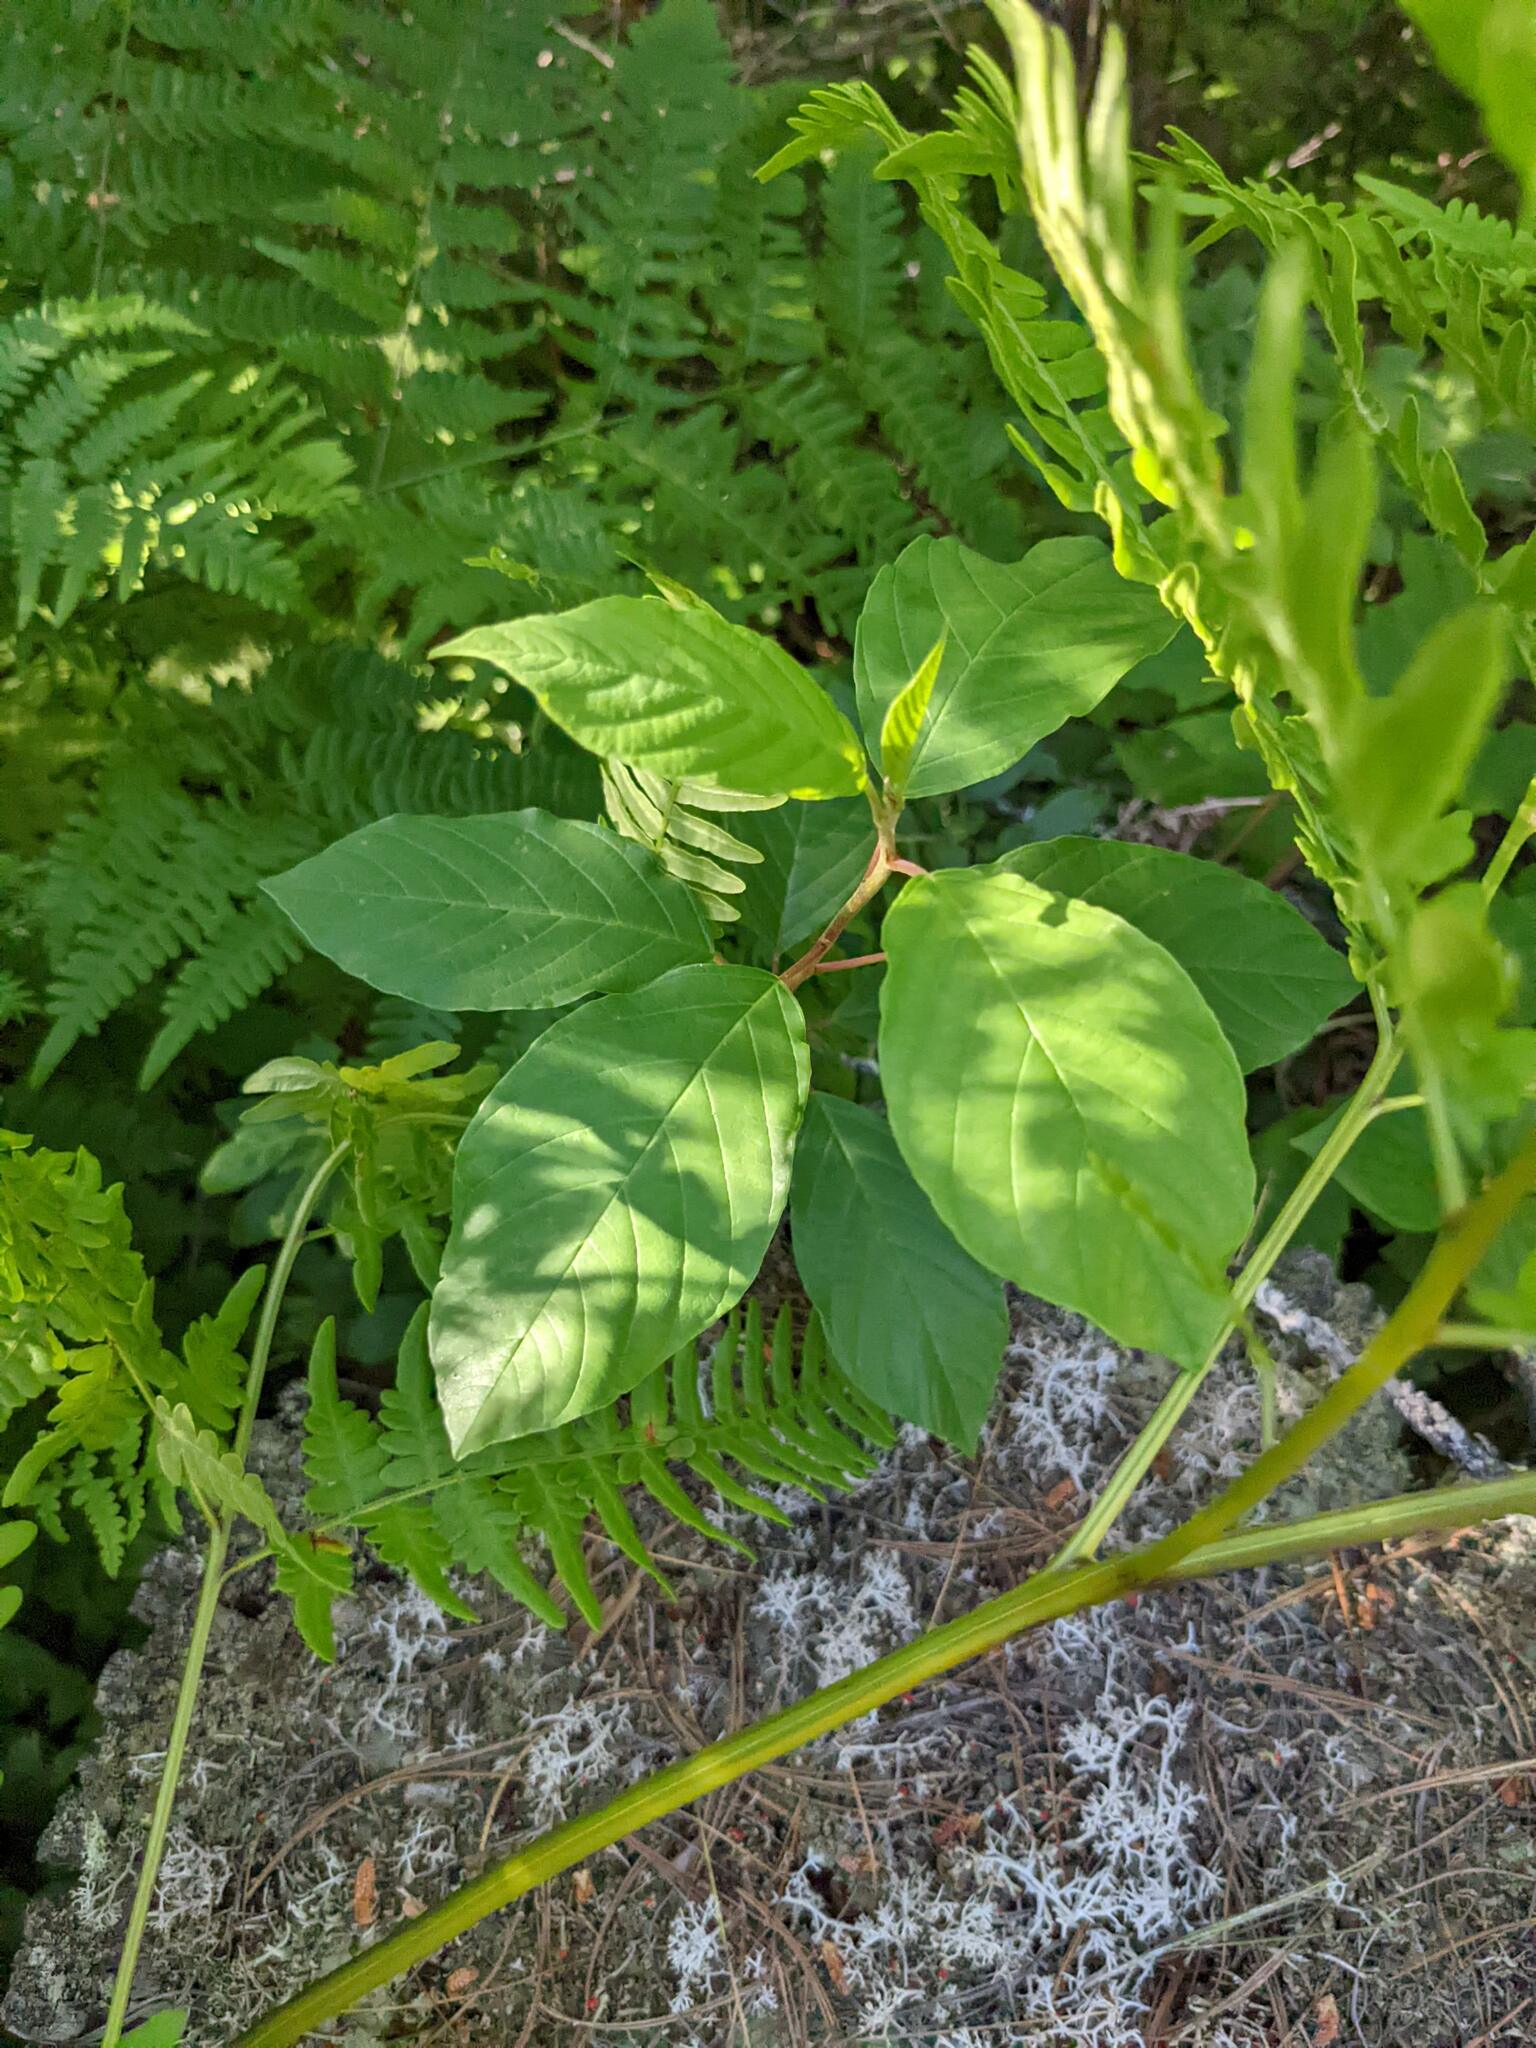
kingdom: Plantae
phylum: Tracheophyta
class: Magnoliopsida
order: Rosales
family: Rhamnaceae
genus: Frangula
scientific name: Frangula alnus
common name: Alder buckthorn
